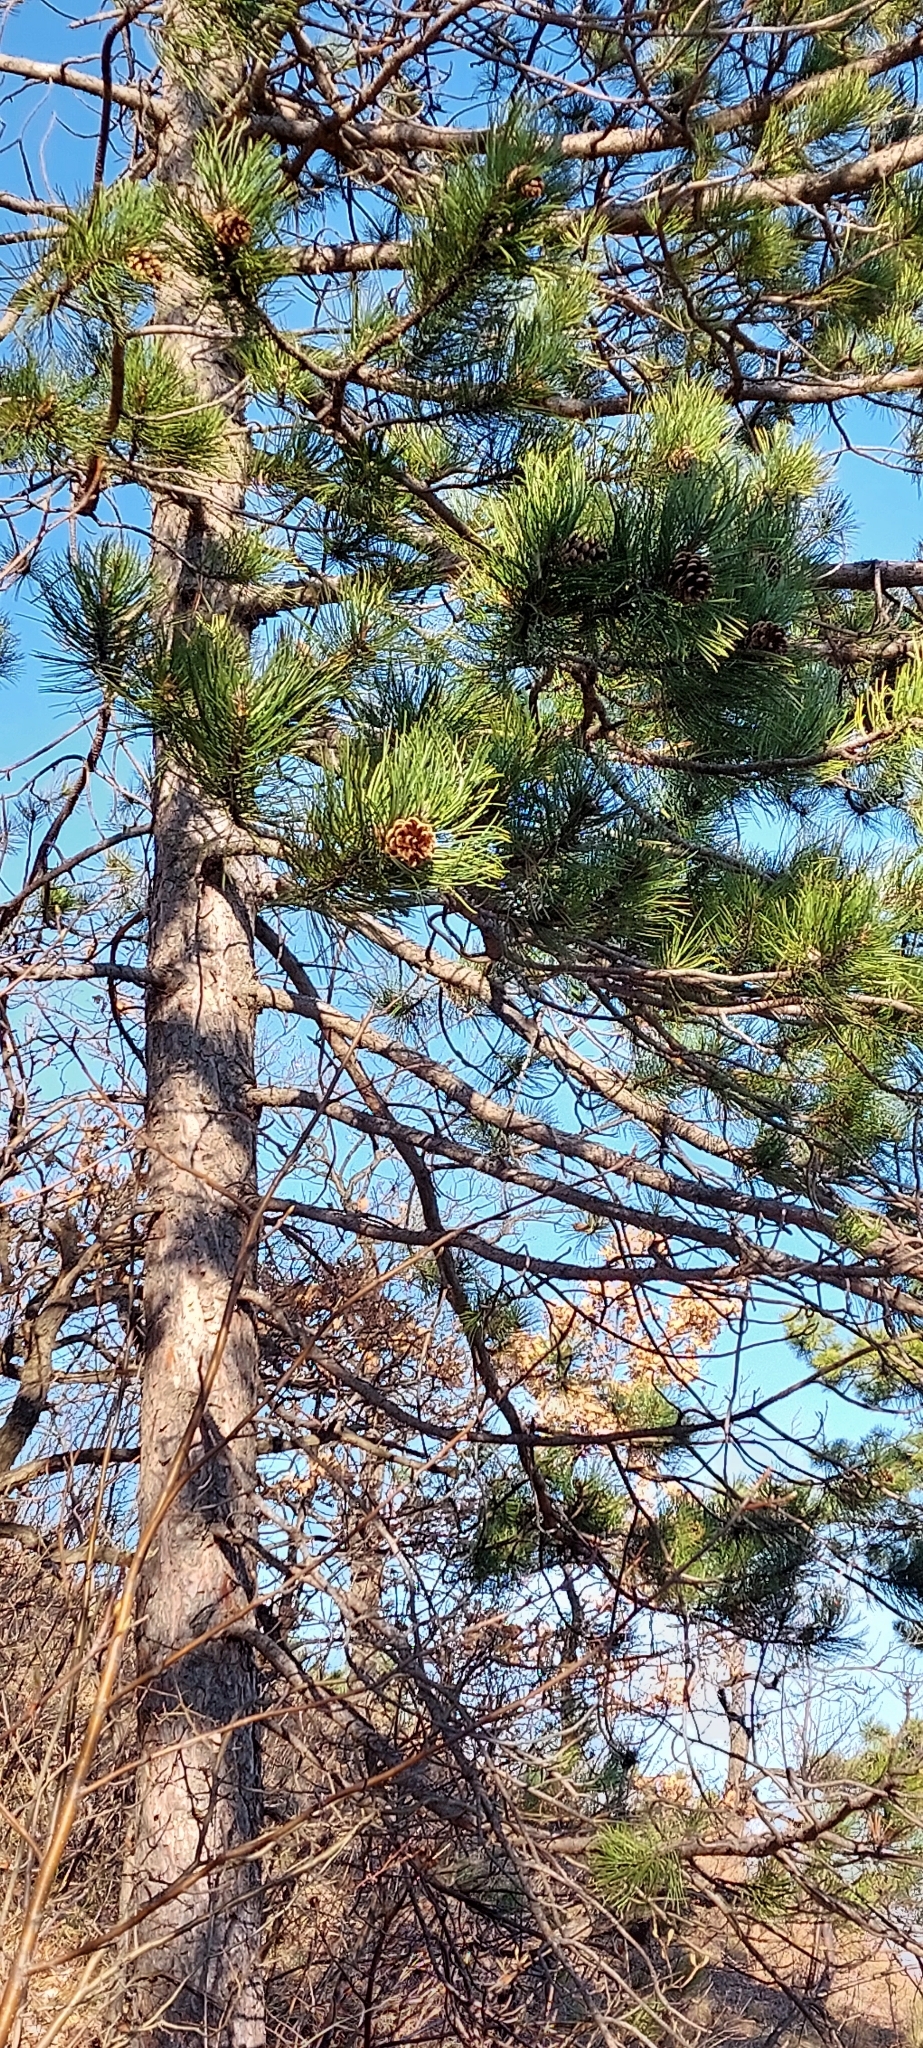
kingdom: Plantae
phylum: Tracheophyta
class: Pinopsida
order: Pinales
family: Pinaceae
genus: Pinus
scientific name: Pinus nigra
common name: Austrian pine
